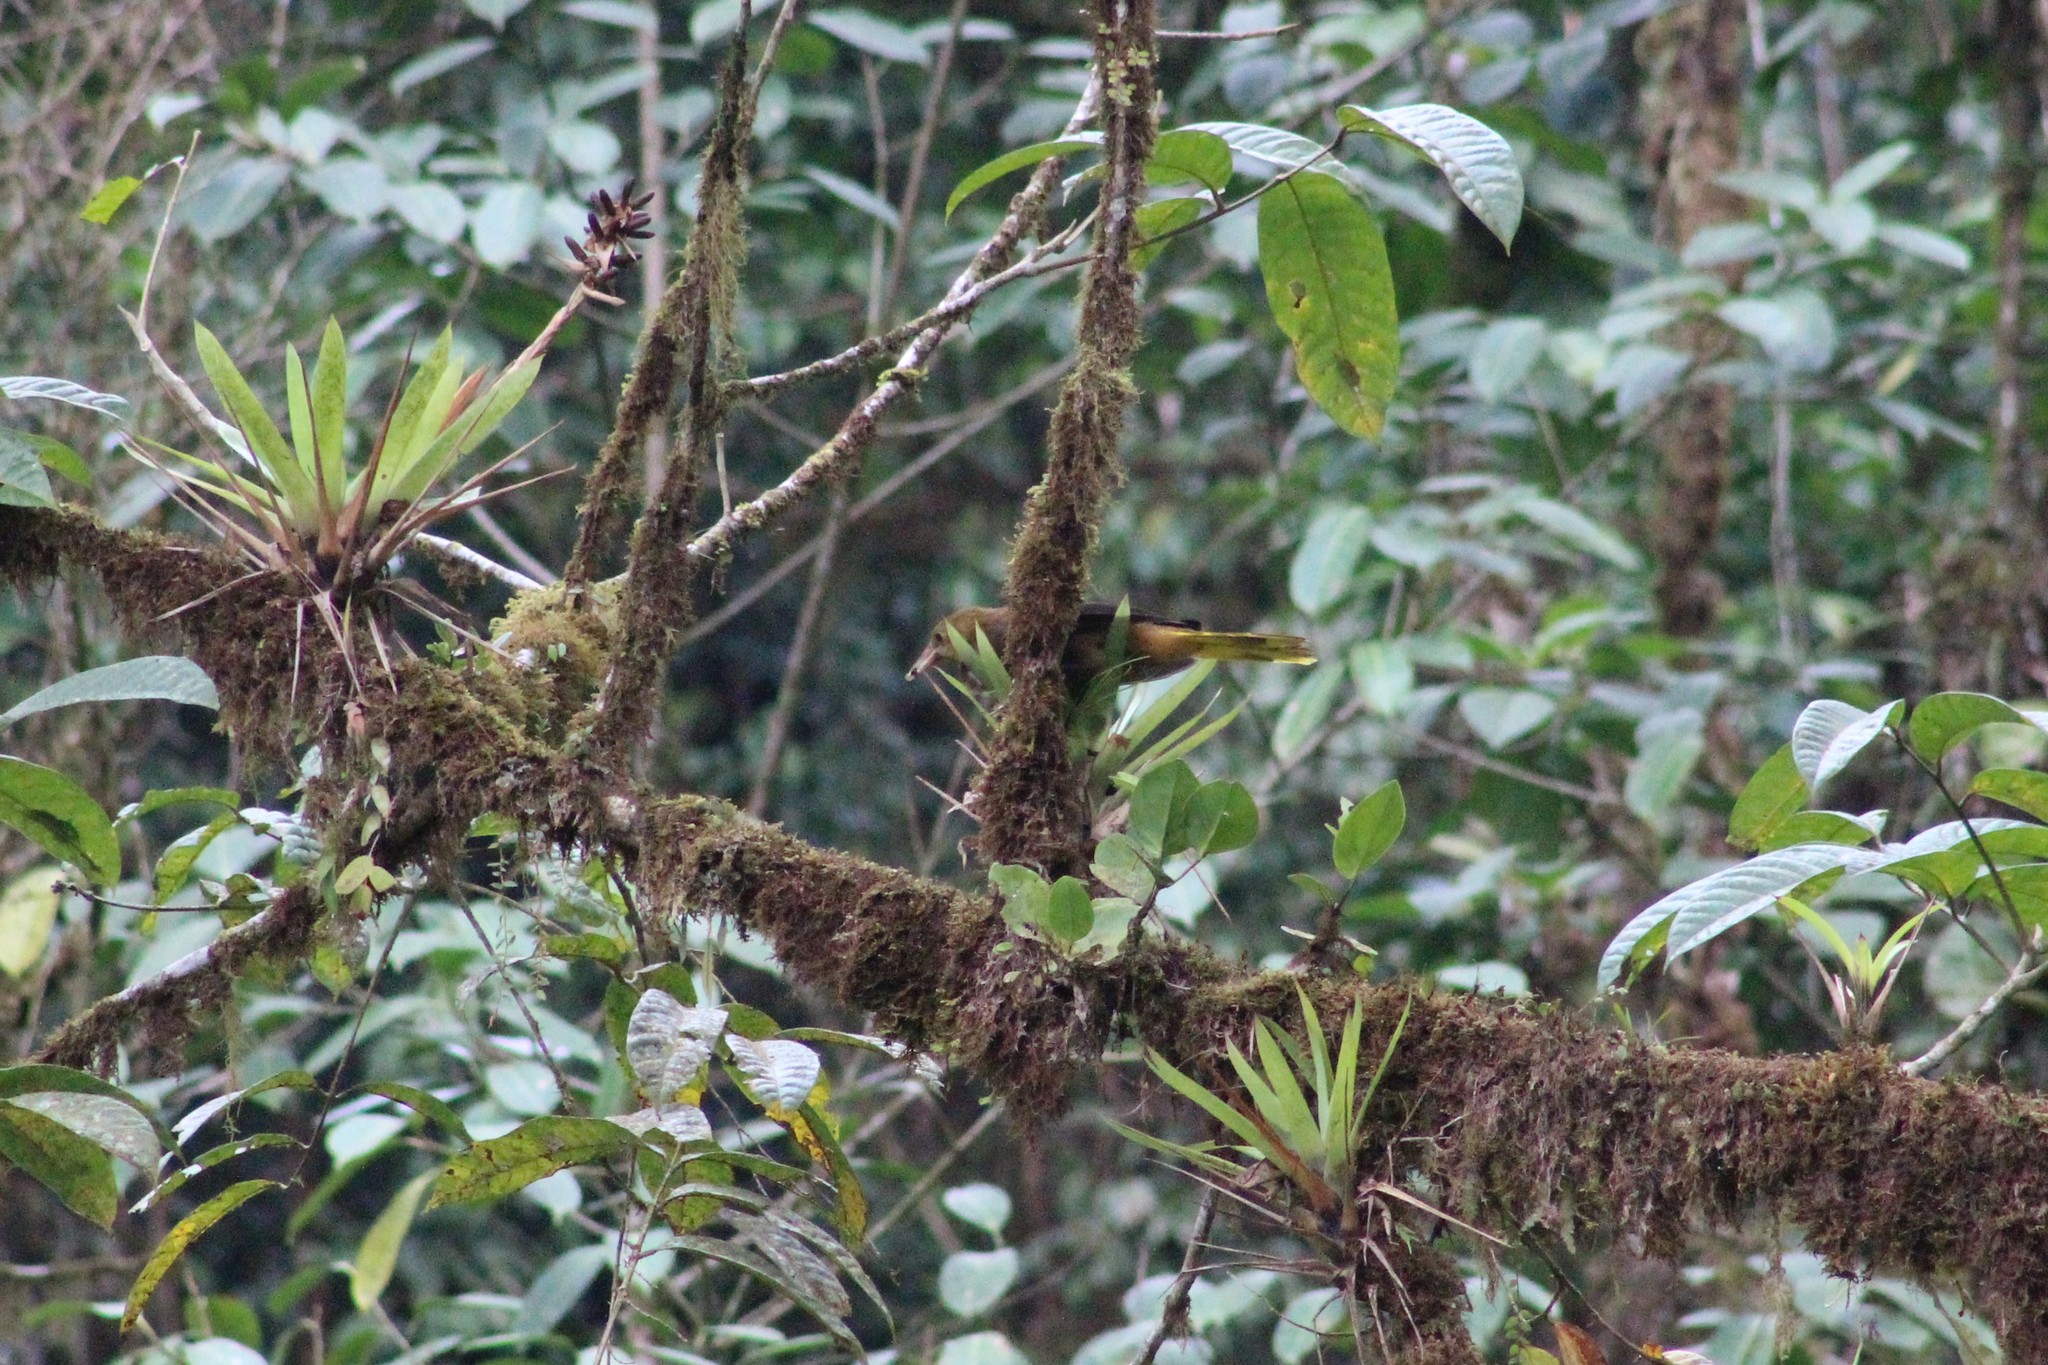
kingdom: Animalia
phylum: Chordata
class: Aves
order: Passeriformes
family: Icteridae
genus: Psarocolius
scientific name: Psarocolius angustifrons
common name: Russet-backed oropendola
